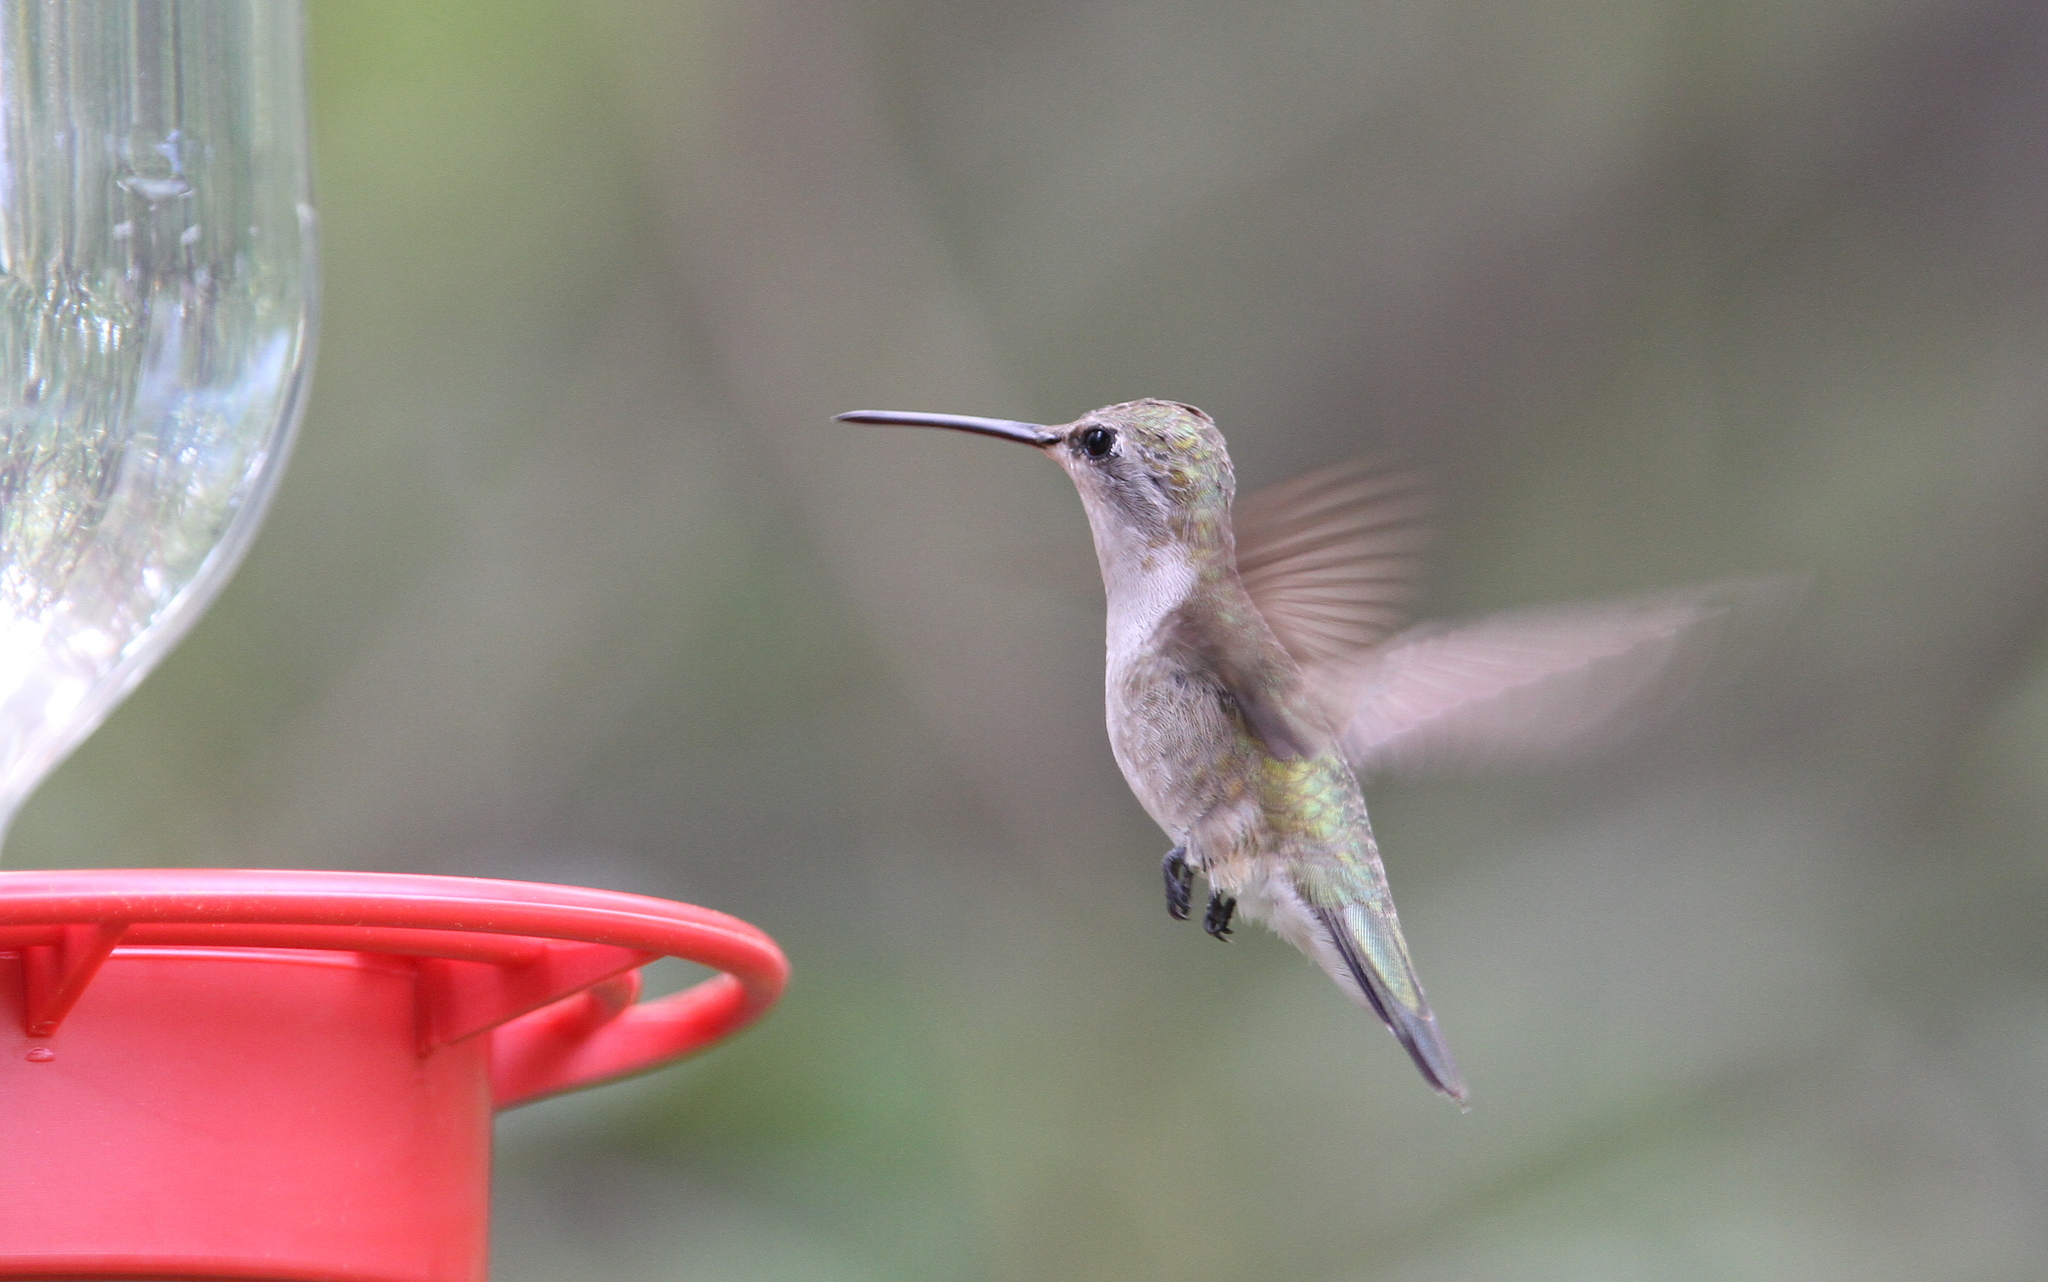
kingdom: Animalia
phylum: Chordata
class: Aves
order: Apodiformes
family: Trochilidae
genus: Archilochus
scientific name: Archilochus alexandri
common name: Black-chinned hummingbird
